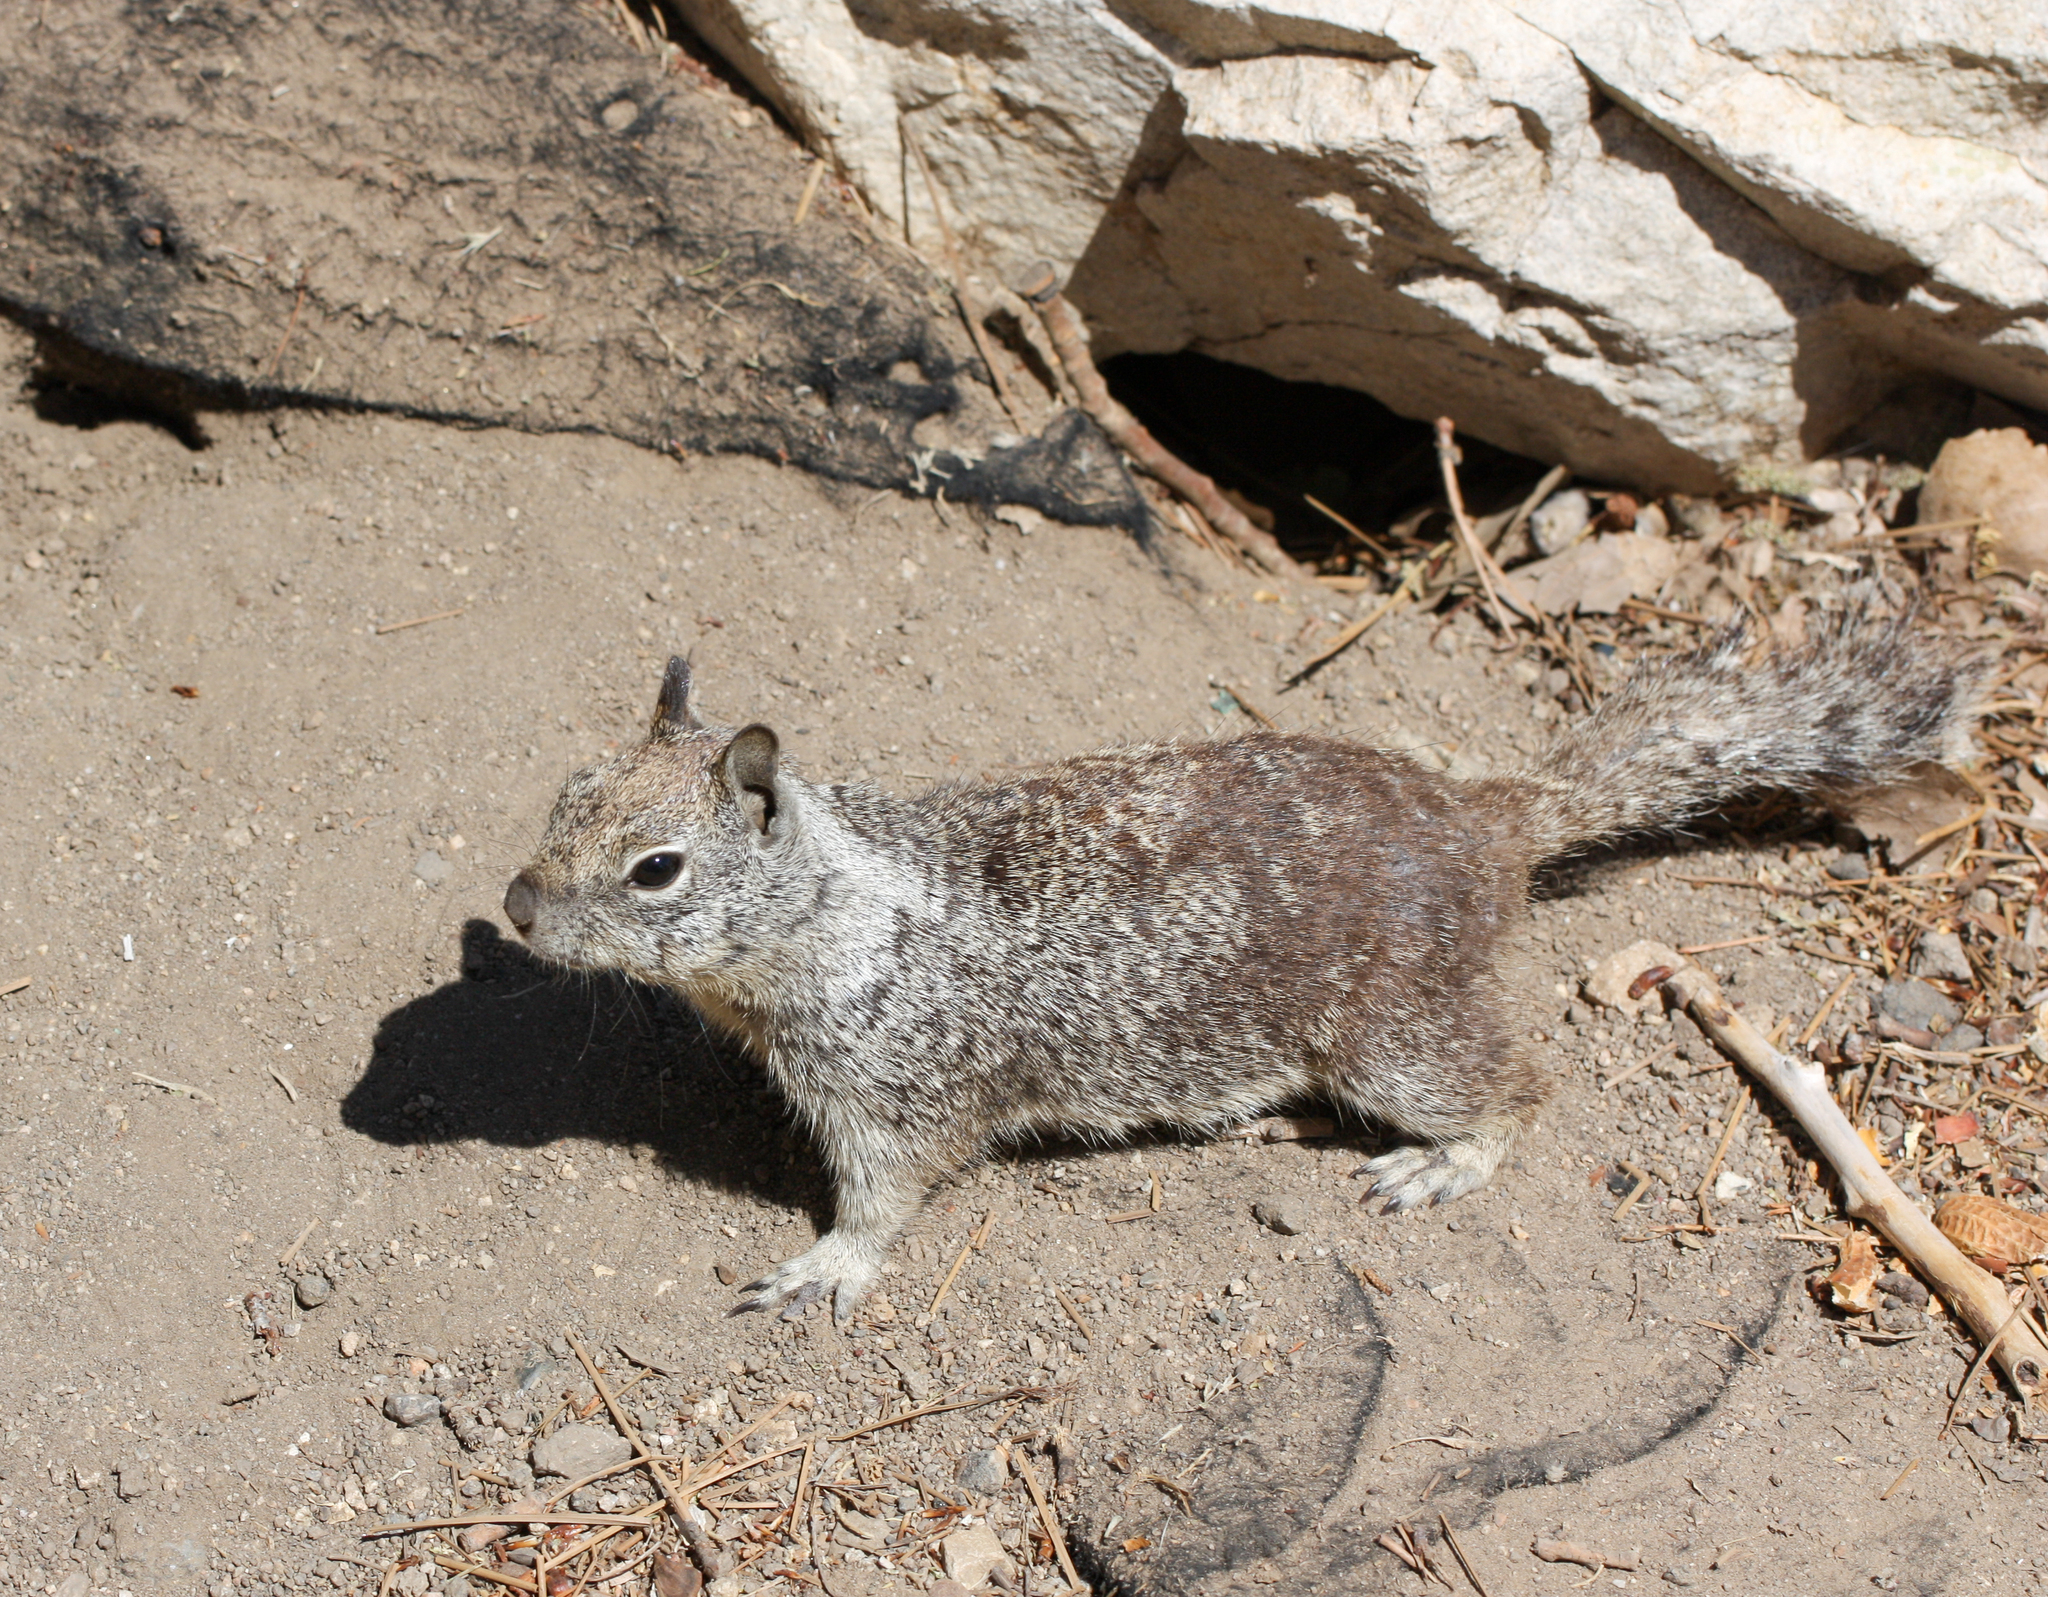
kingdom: Animalia
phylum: Chordata
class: Mammalia
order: Rodentia
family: Sciuridae
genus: Otospermophilus
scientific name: Otospermophilus beecheyi
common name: California ground squirrel
